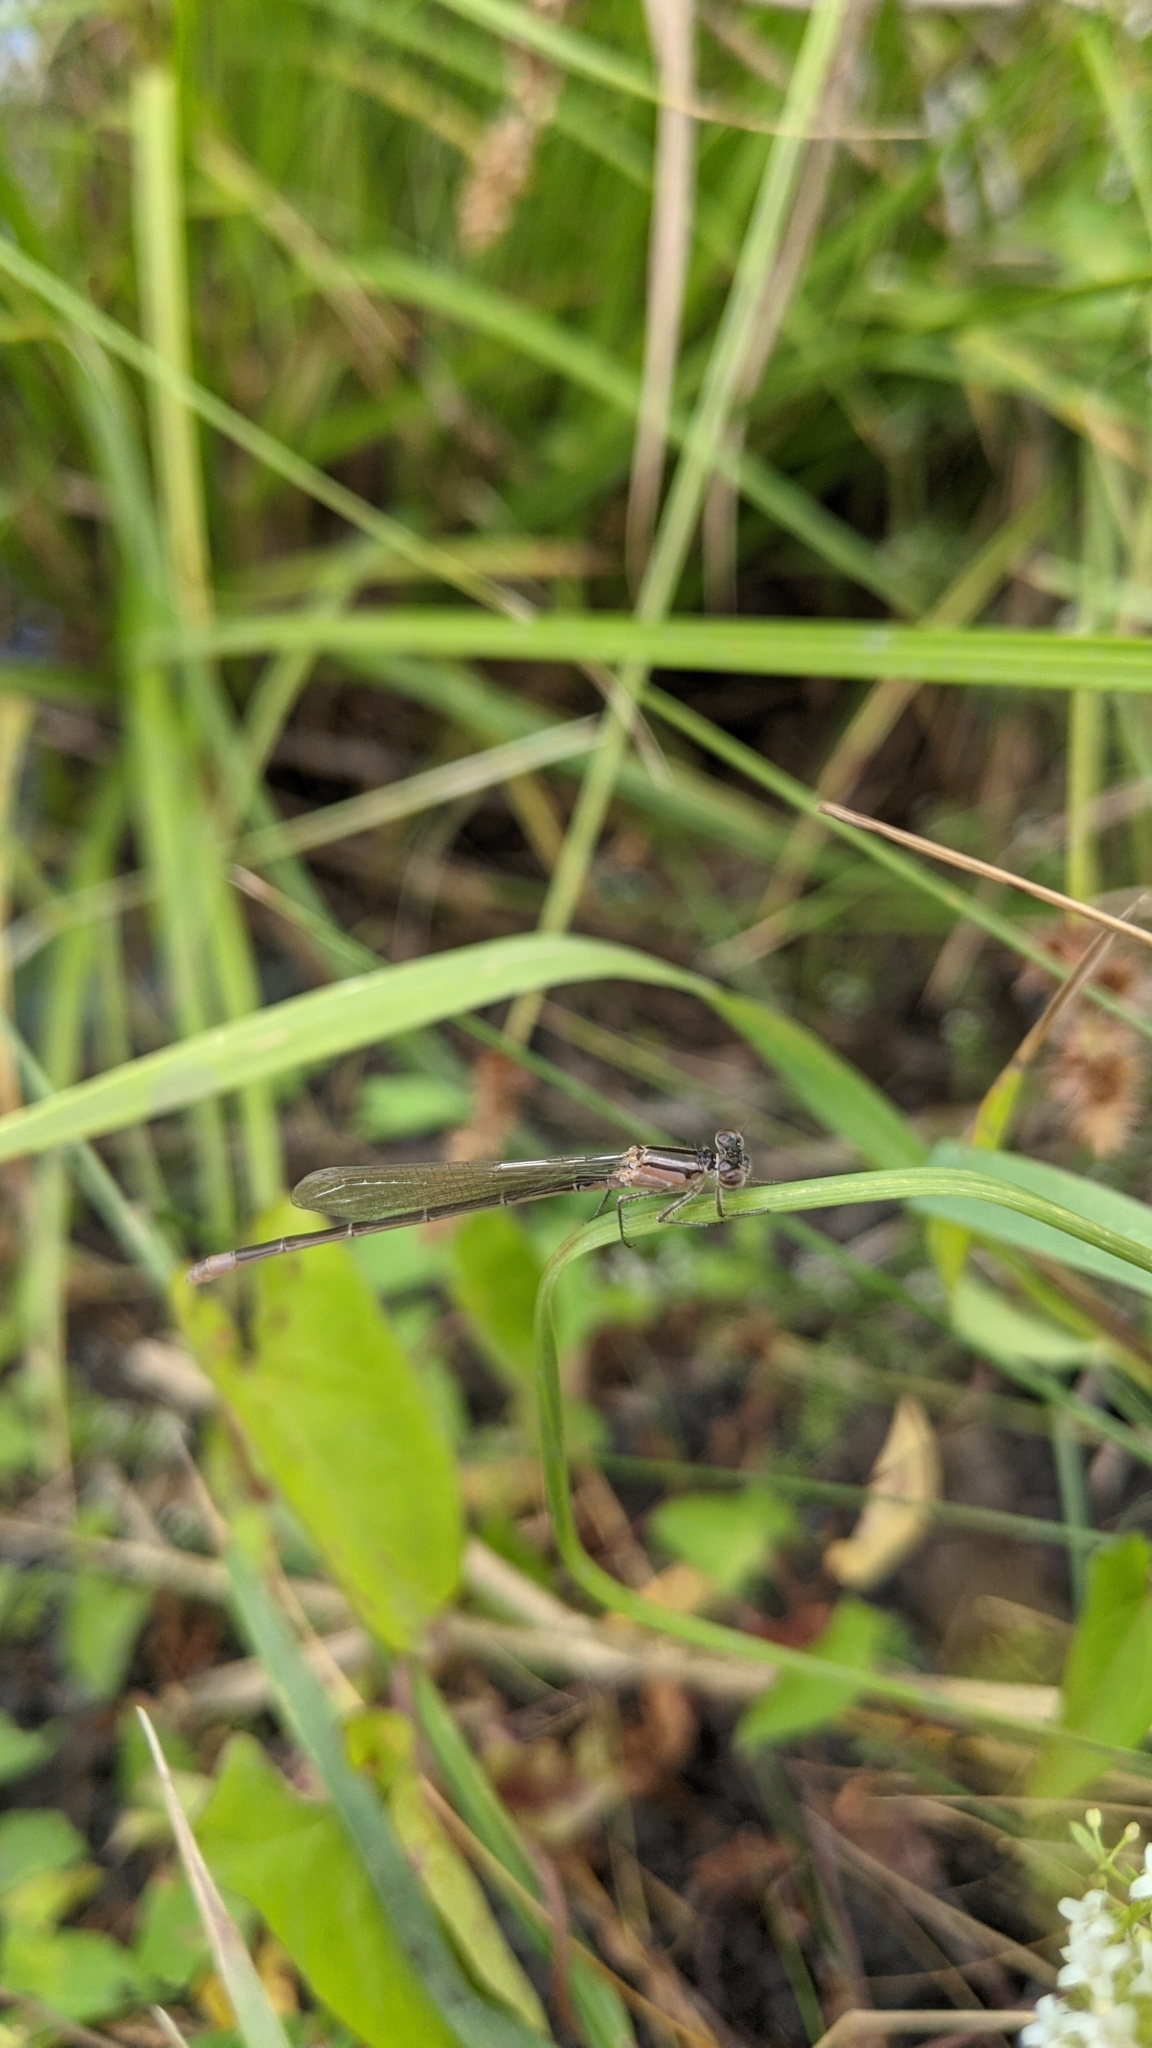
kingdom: Animalia
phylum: Arthropoda
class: Insecta
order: Odonata
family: Coenagrionidae
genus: Ischnura
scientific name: Ischnura elegans
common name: Blue-tailed damselfly
